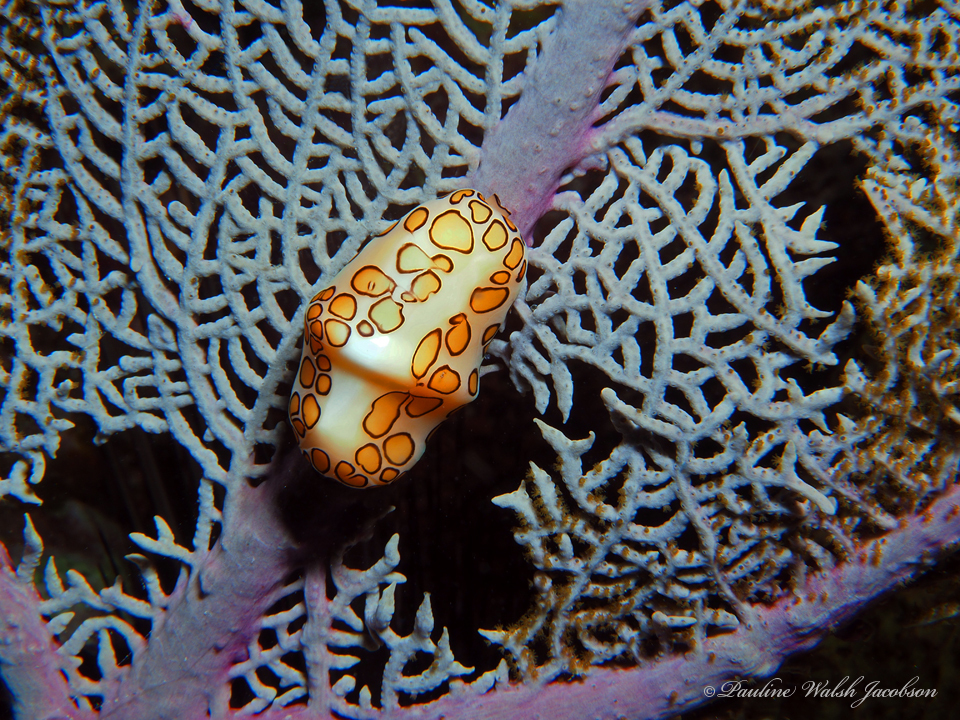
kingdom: Animalia
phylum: Mollusca
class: Gastropoda
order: Littorinimorpha
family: Ovulidae
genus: Cyphoma
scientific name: Cyphoma gibbosum
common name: Flamingo tongue
